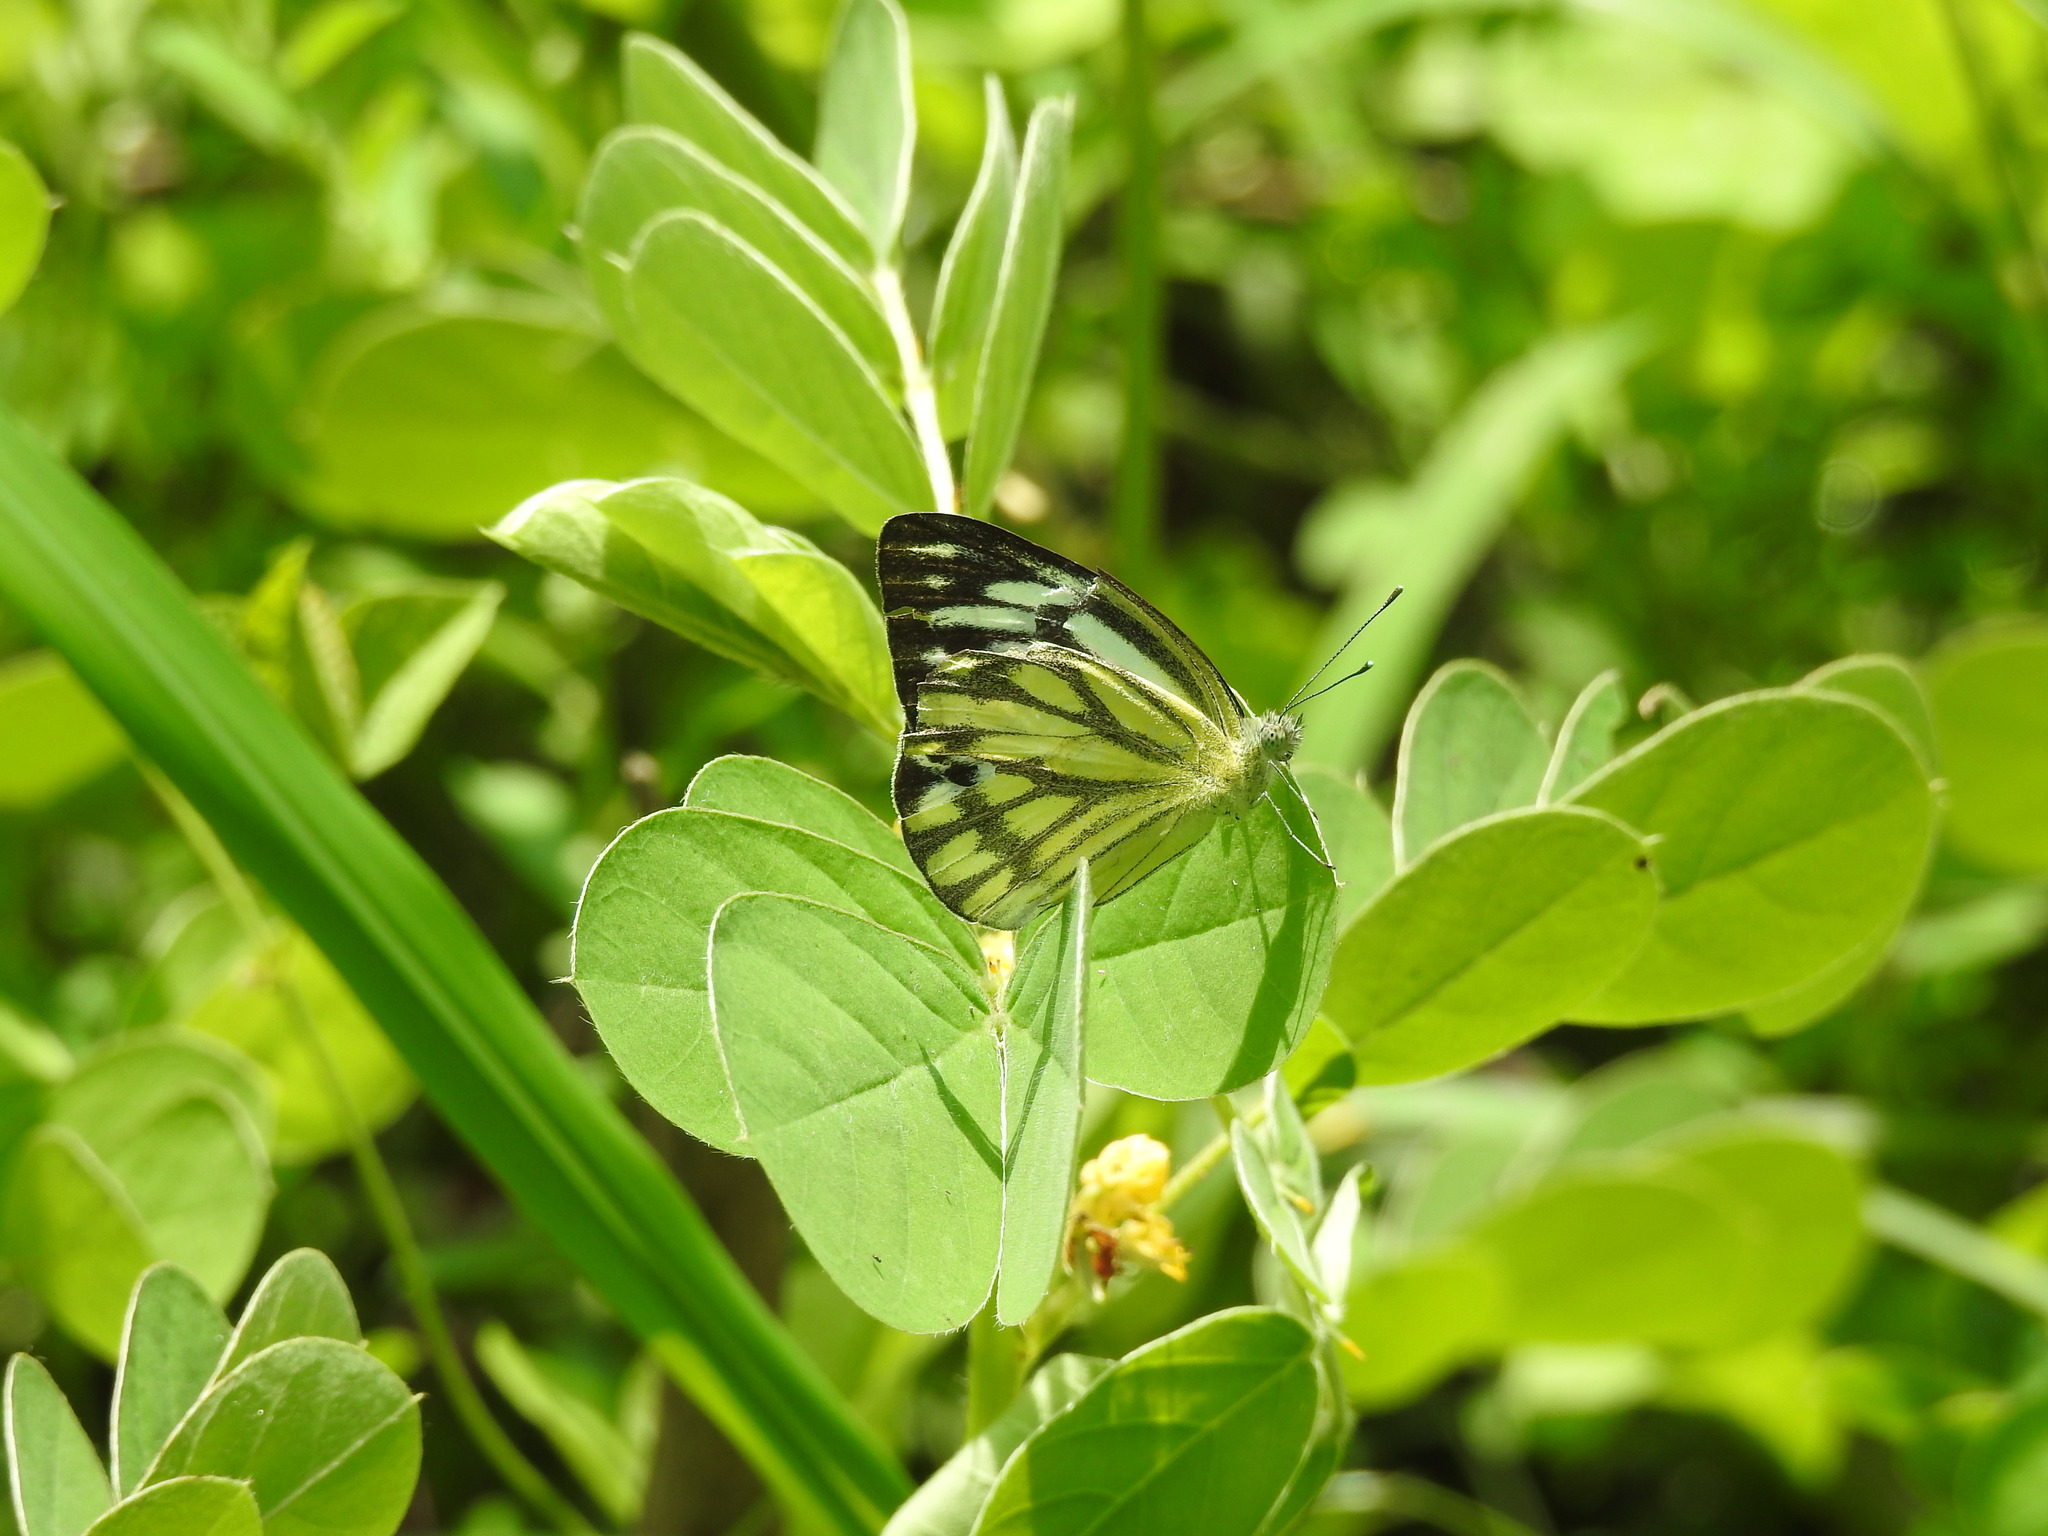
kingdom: Animalia
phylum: Arthropoda
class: Insecta
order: Lepidoptera
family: Pieridae
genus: Cepora
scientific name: Cepora nerissa
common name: Common gull
